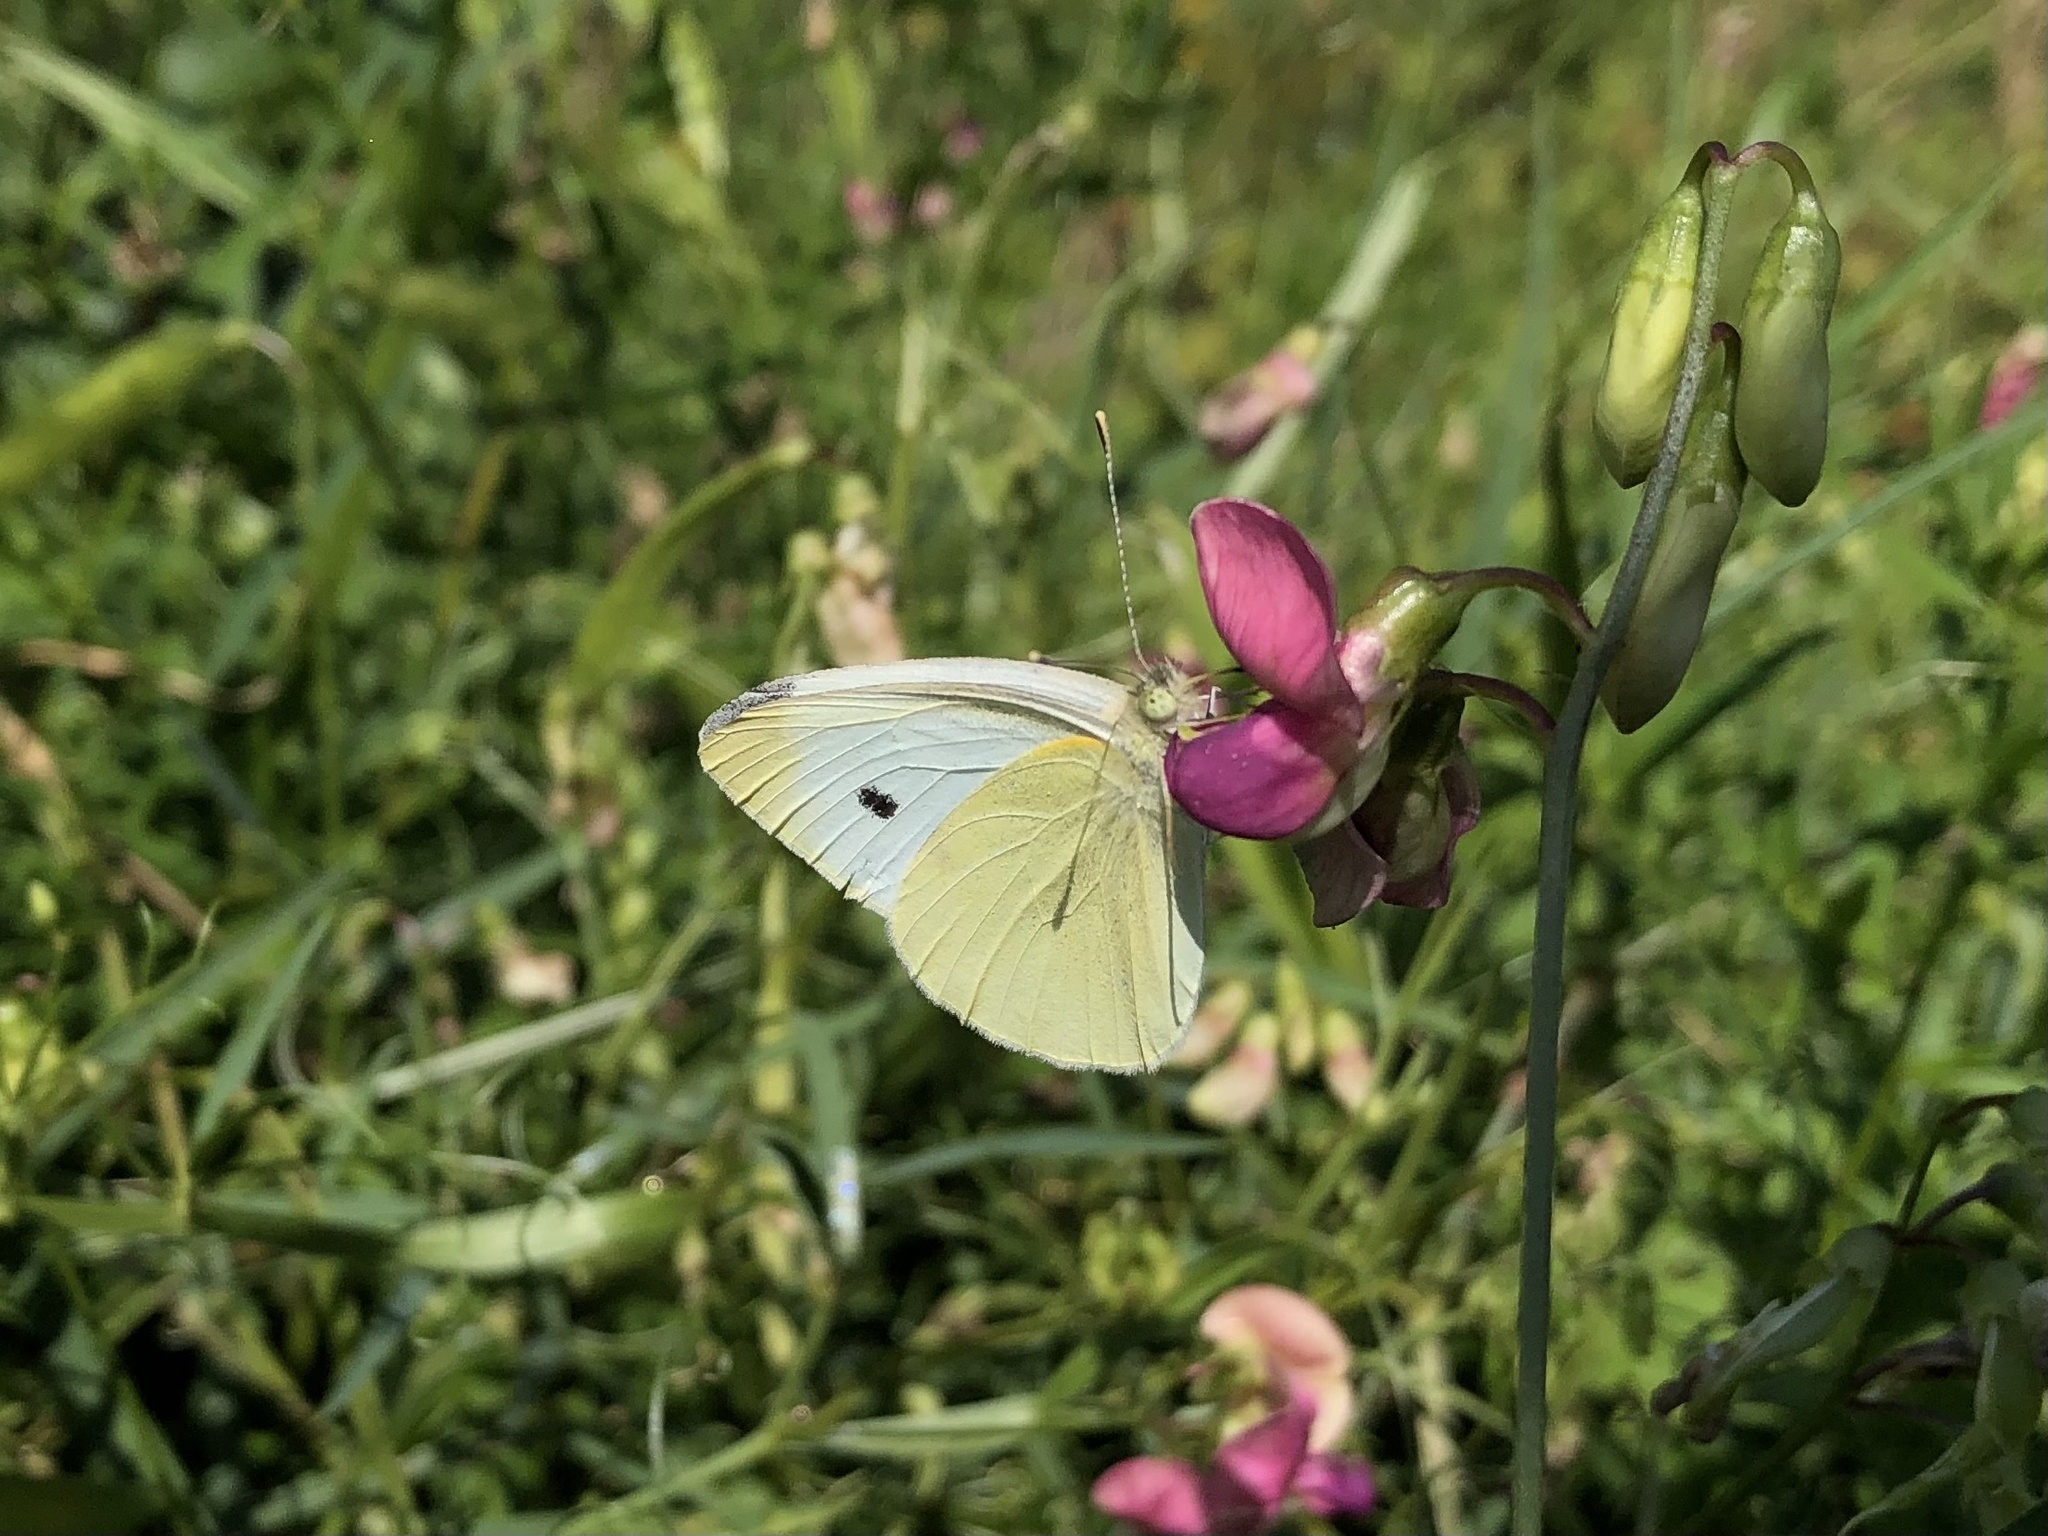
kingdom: Animalia
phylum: Arthropoda
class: Insecta
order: Lepidoptera
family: Pieridae
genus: Pieris
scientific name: Pieris rapae
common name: Small white
